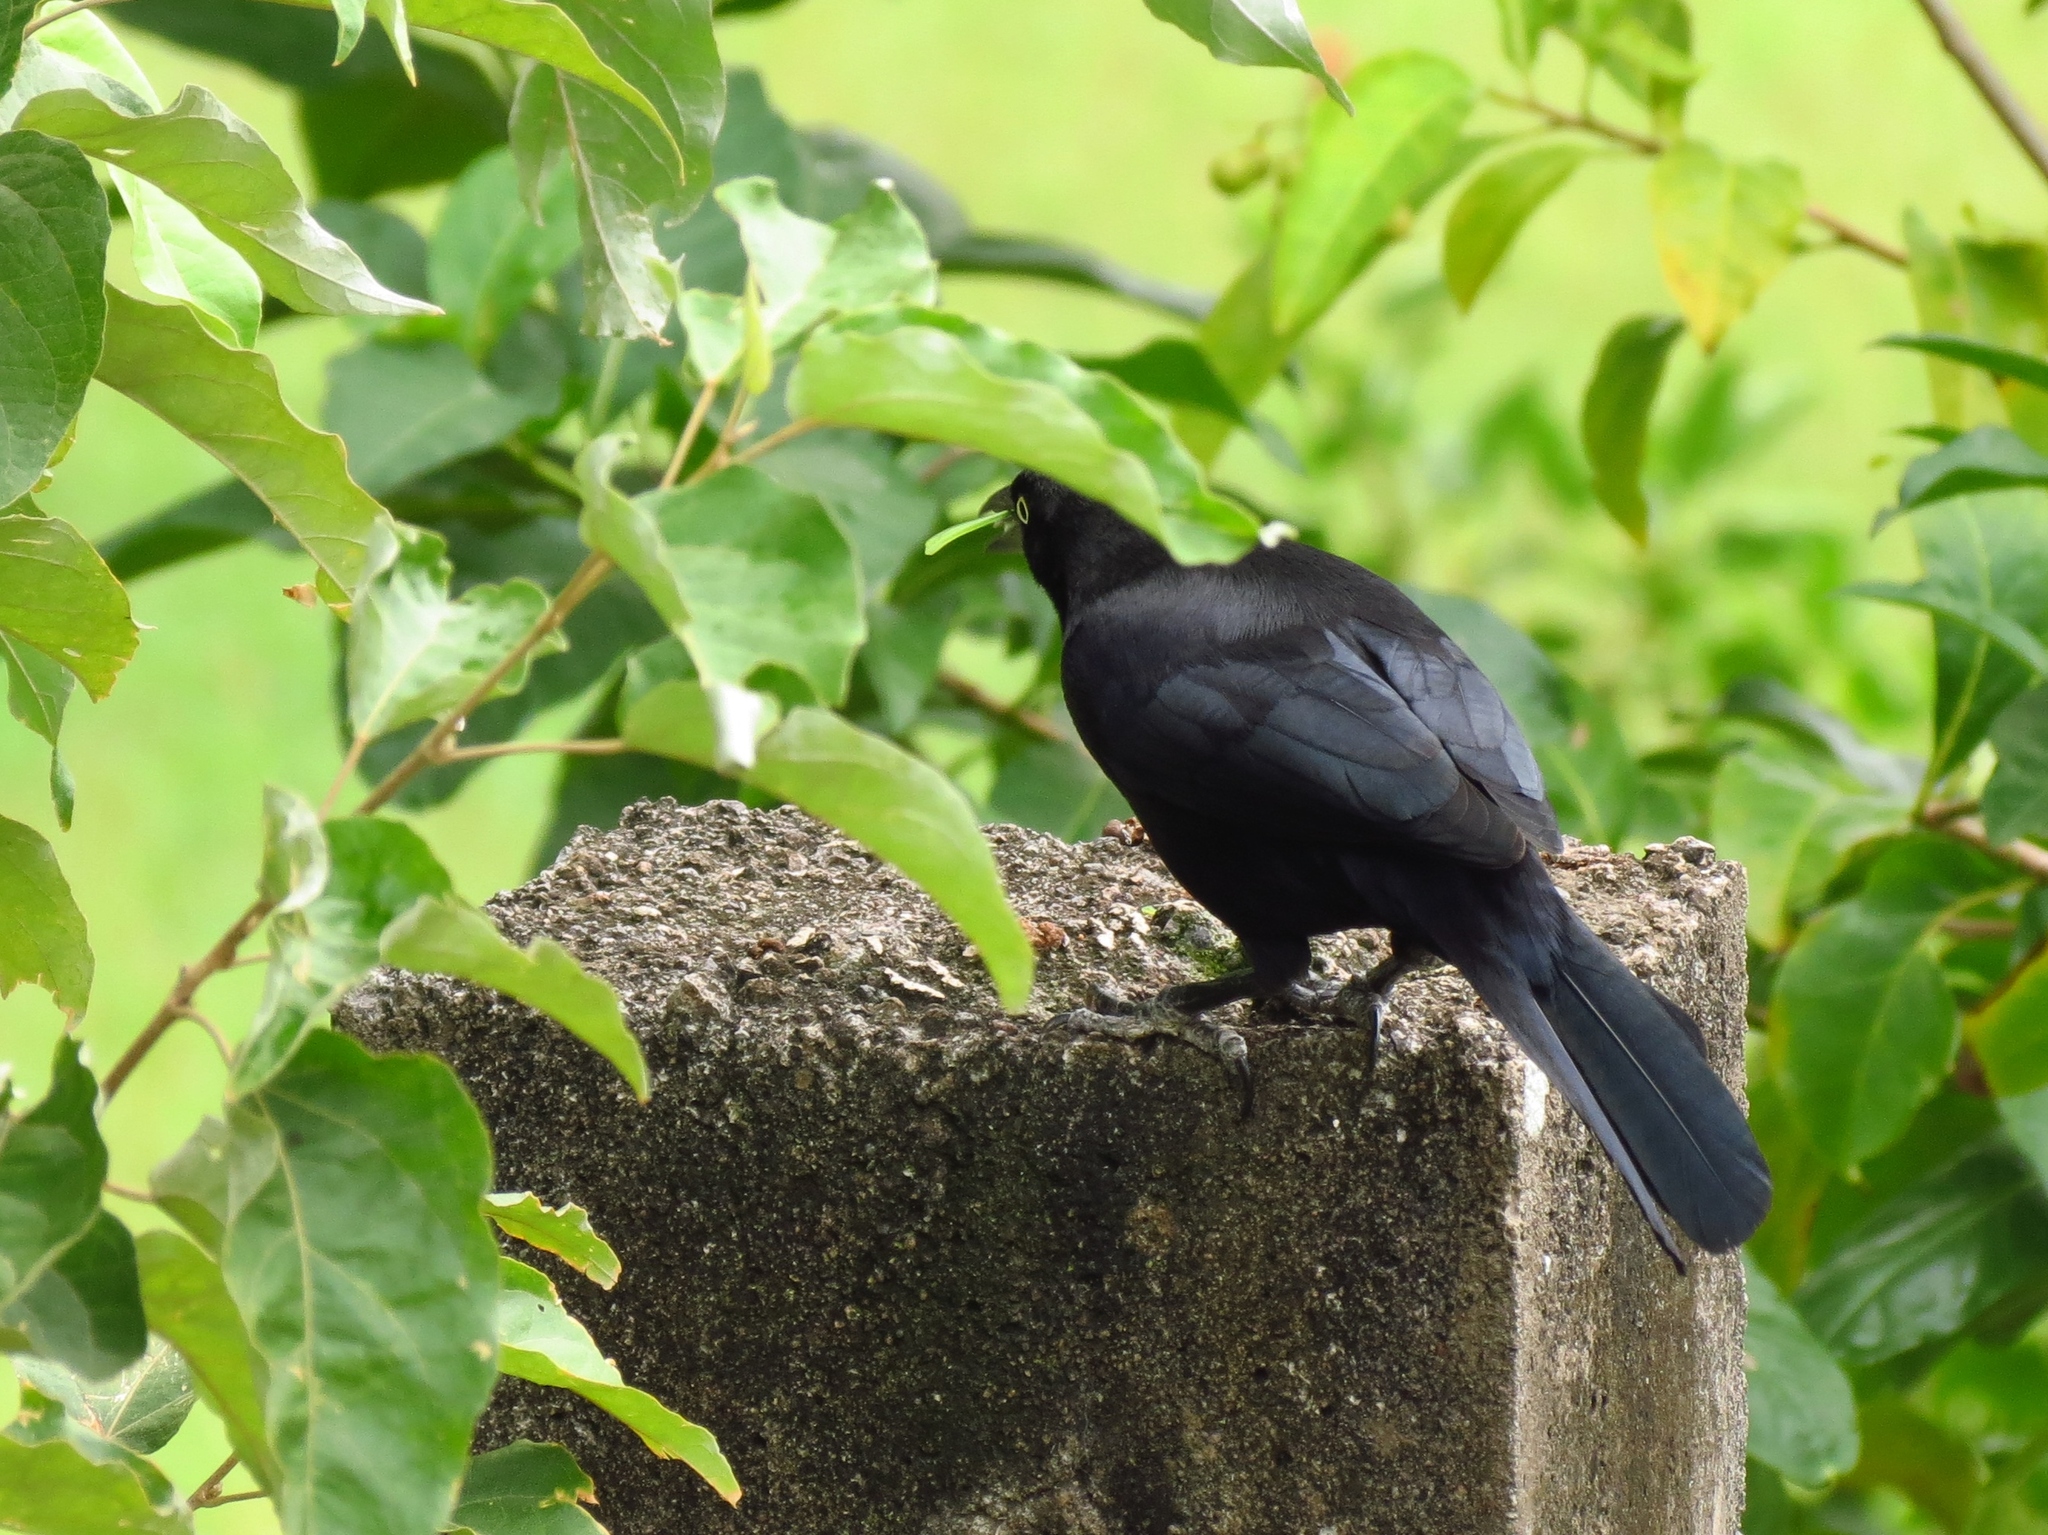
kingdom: Animalia
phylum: Chordata
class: Aves
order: Passeriformes
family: Icteridae
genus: Quiscalus
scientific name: Quiscalus lugubris
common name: Carib grackle
